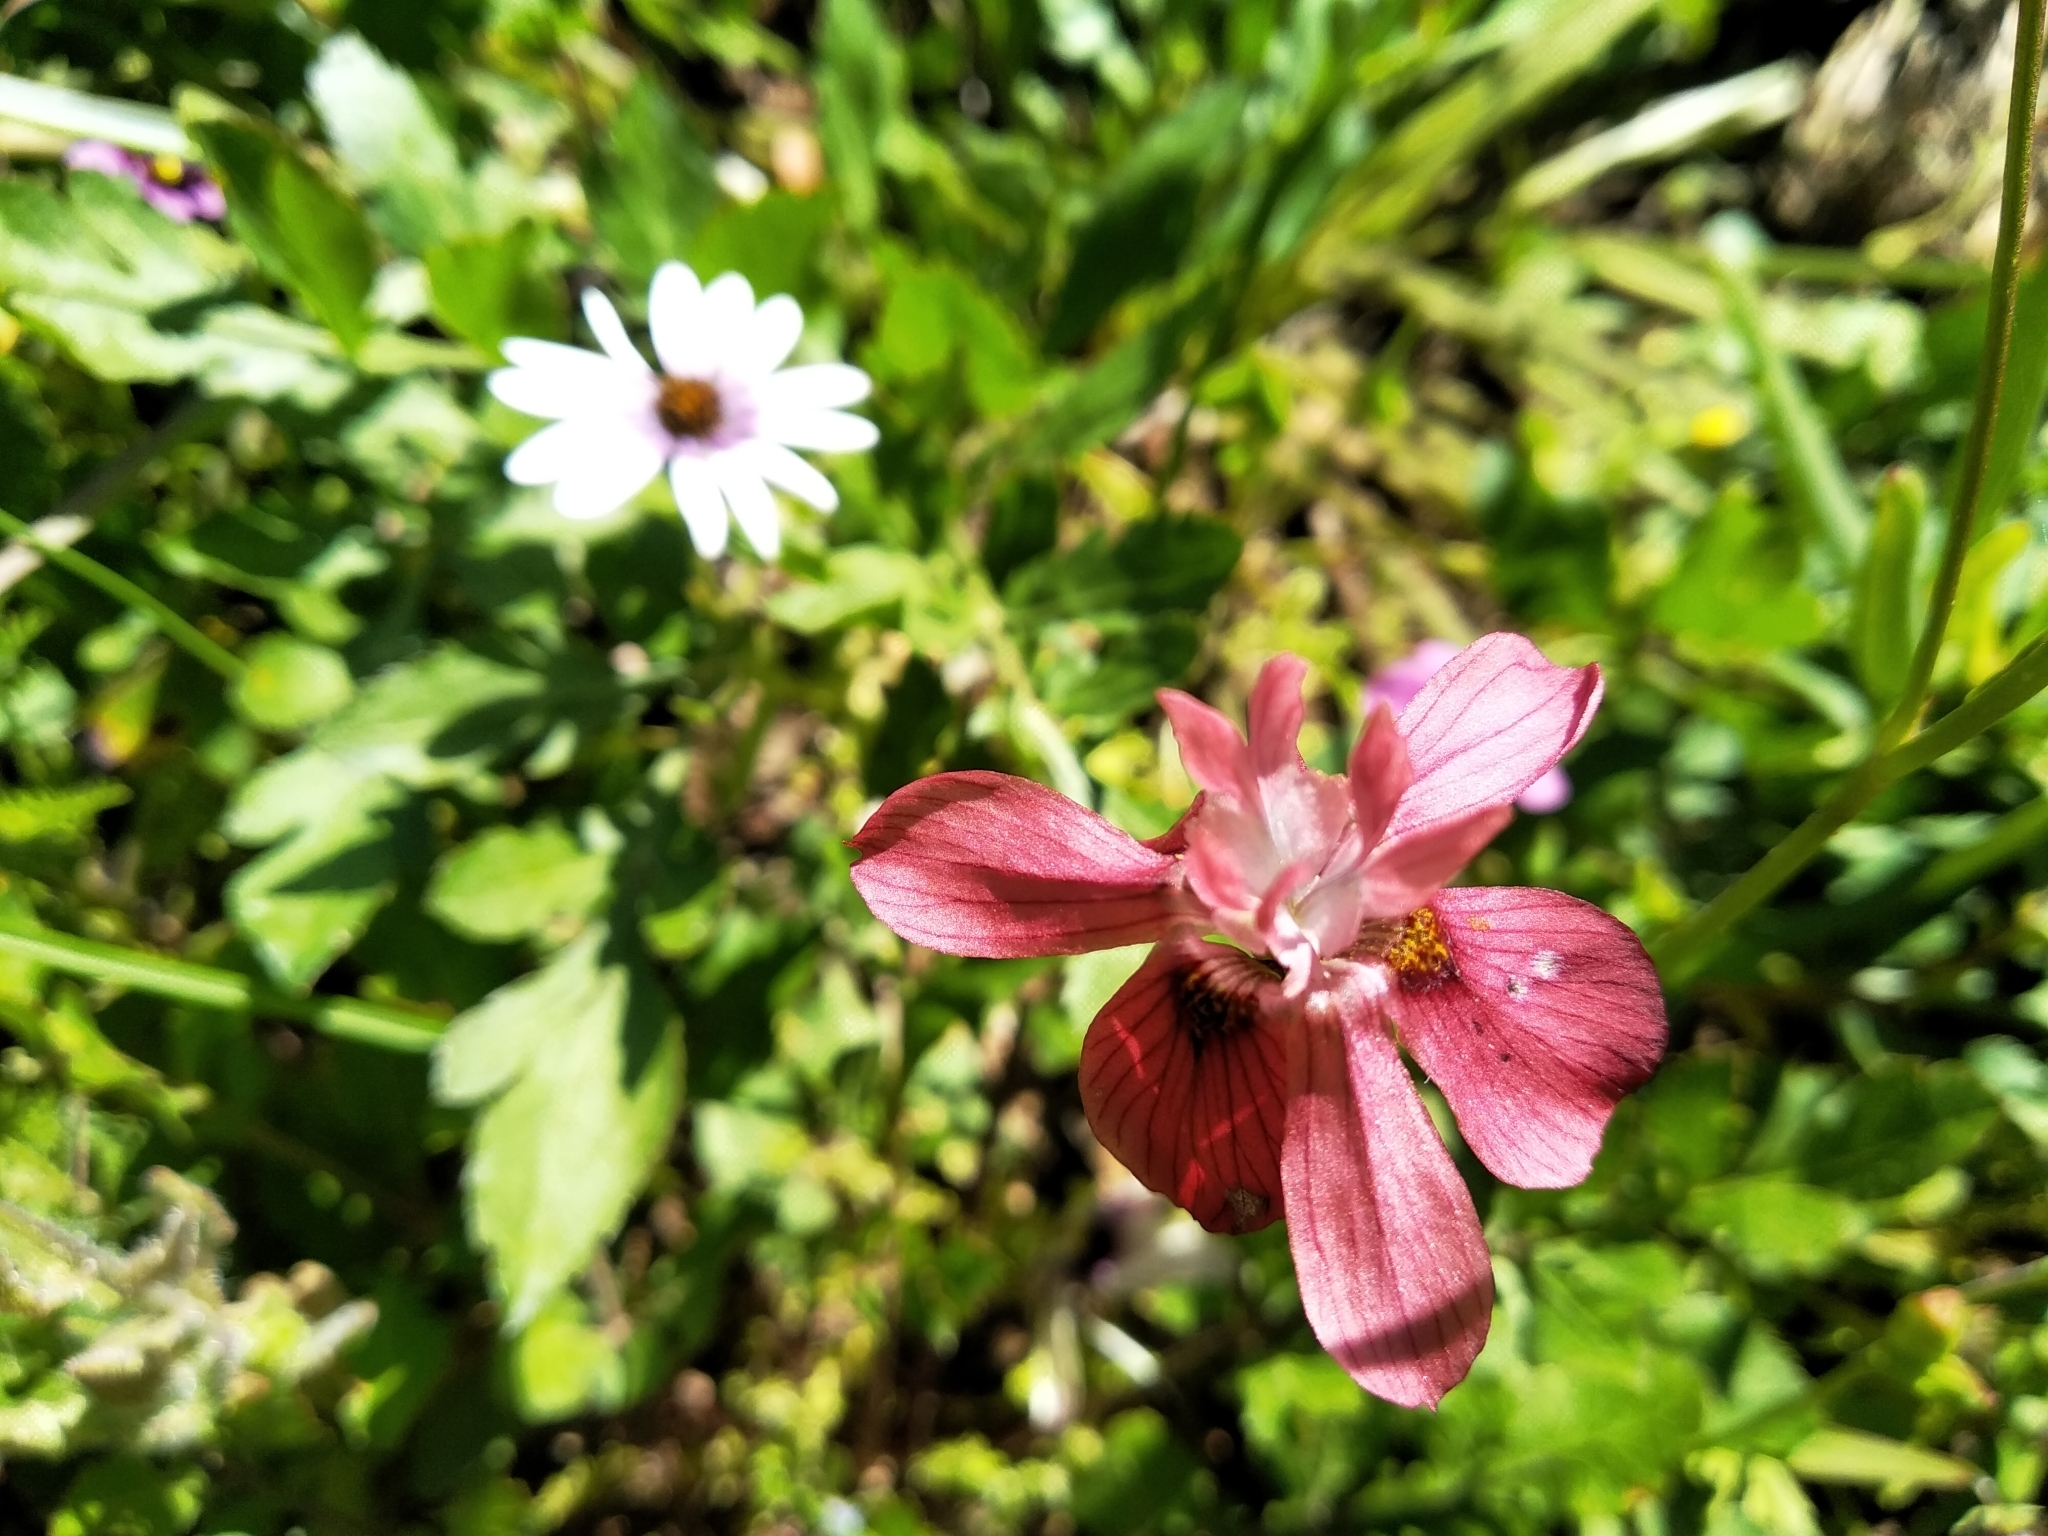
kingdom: Plantae
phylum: Tracheophyta
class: Liliopsida
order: Asparagales
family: Iridaceae
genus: Moraea
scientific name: Moraea gawleri
